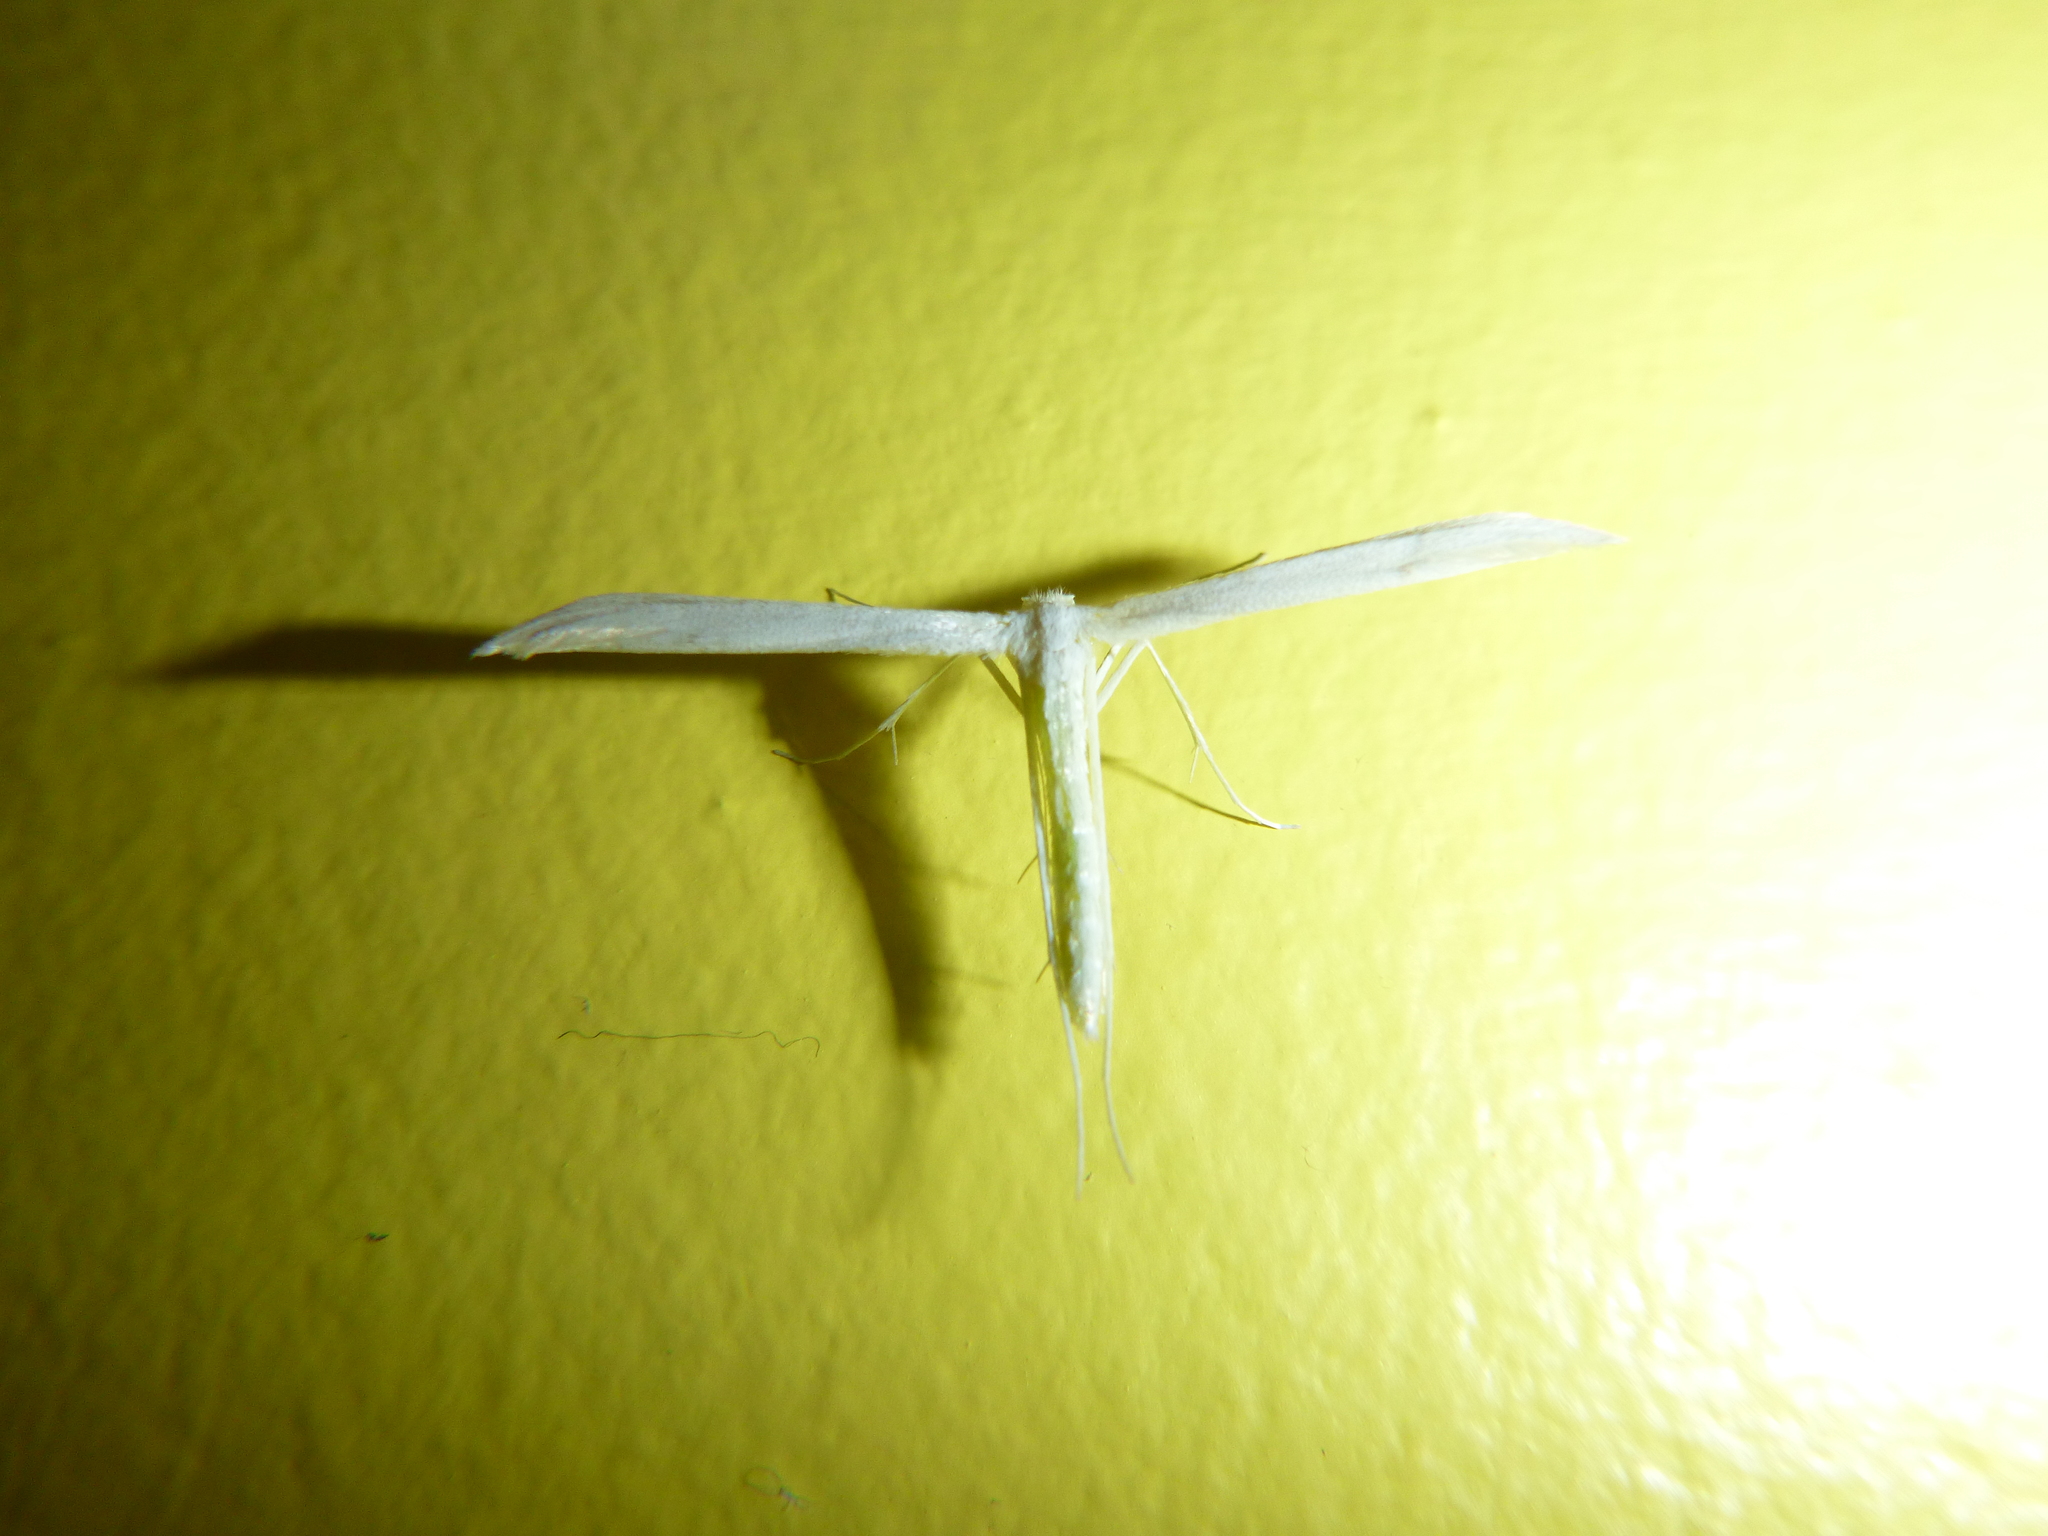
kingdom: Animalia
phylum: Arthropoda
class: Insecta
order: Lepidoptera
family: Pterophoridae
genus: Hellinsia
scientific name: Hellinsia homodactylus
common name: Plain plume moth
